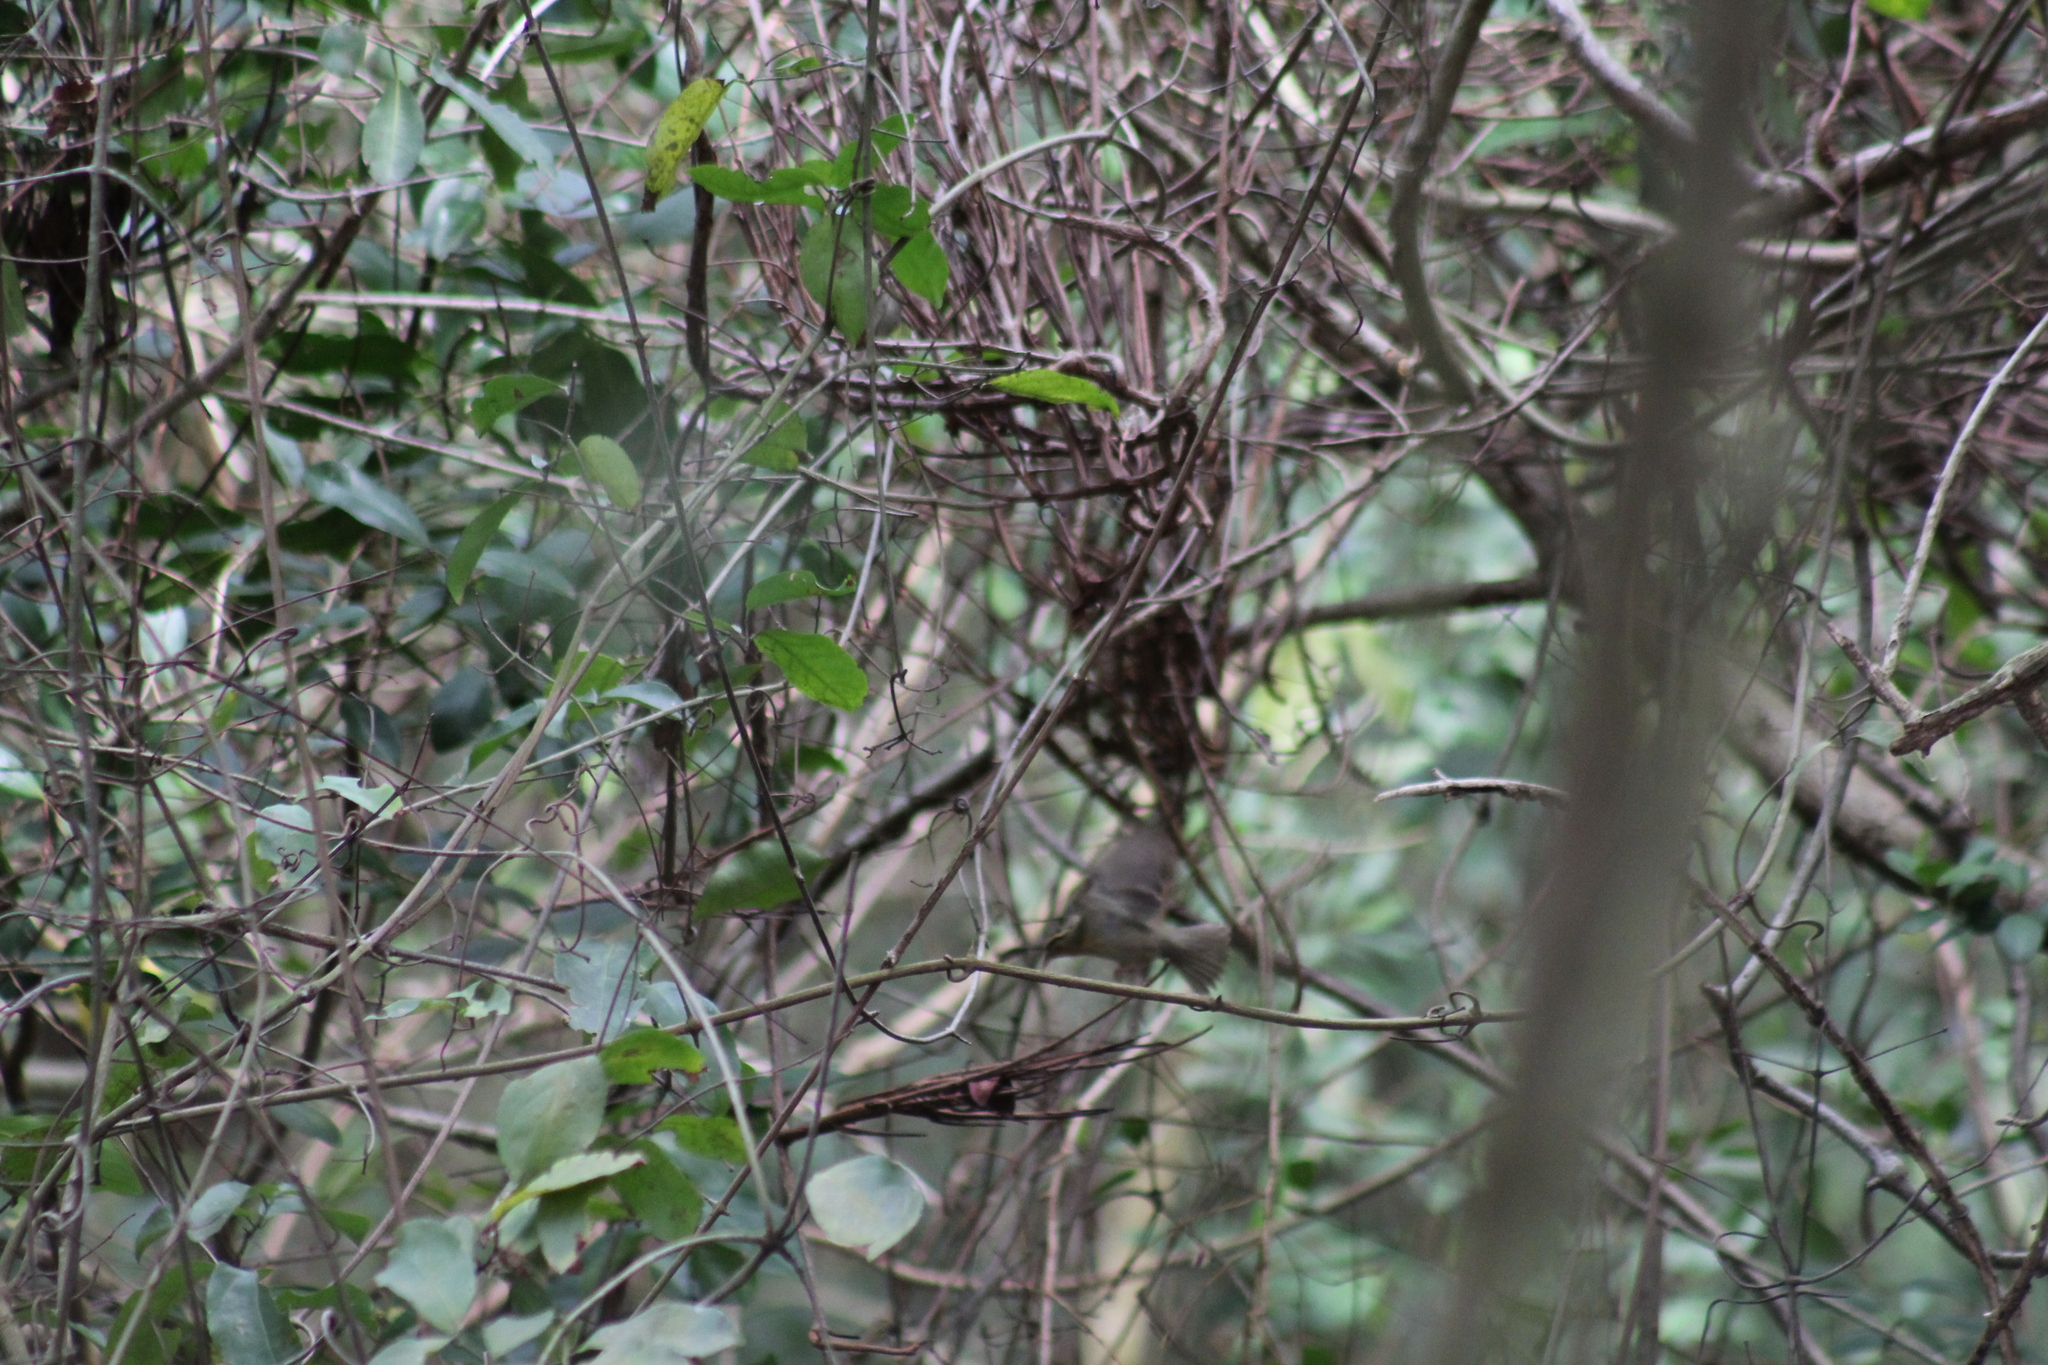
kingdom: Animalia
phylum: Chordata
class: Aves
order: Passeriformes
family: Parulidae
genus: Helmitheros
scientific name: Helmitheros vermivorum
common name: Worm-eating warbler
